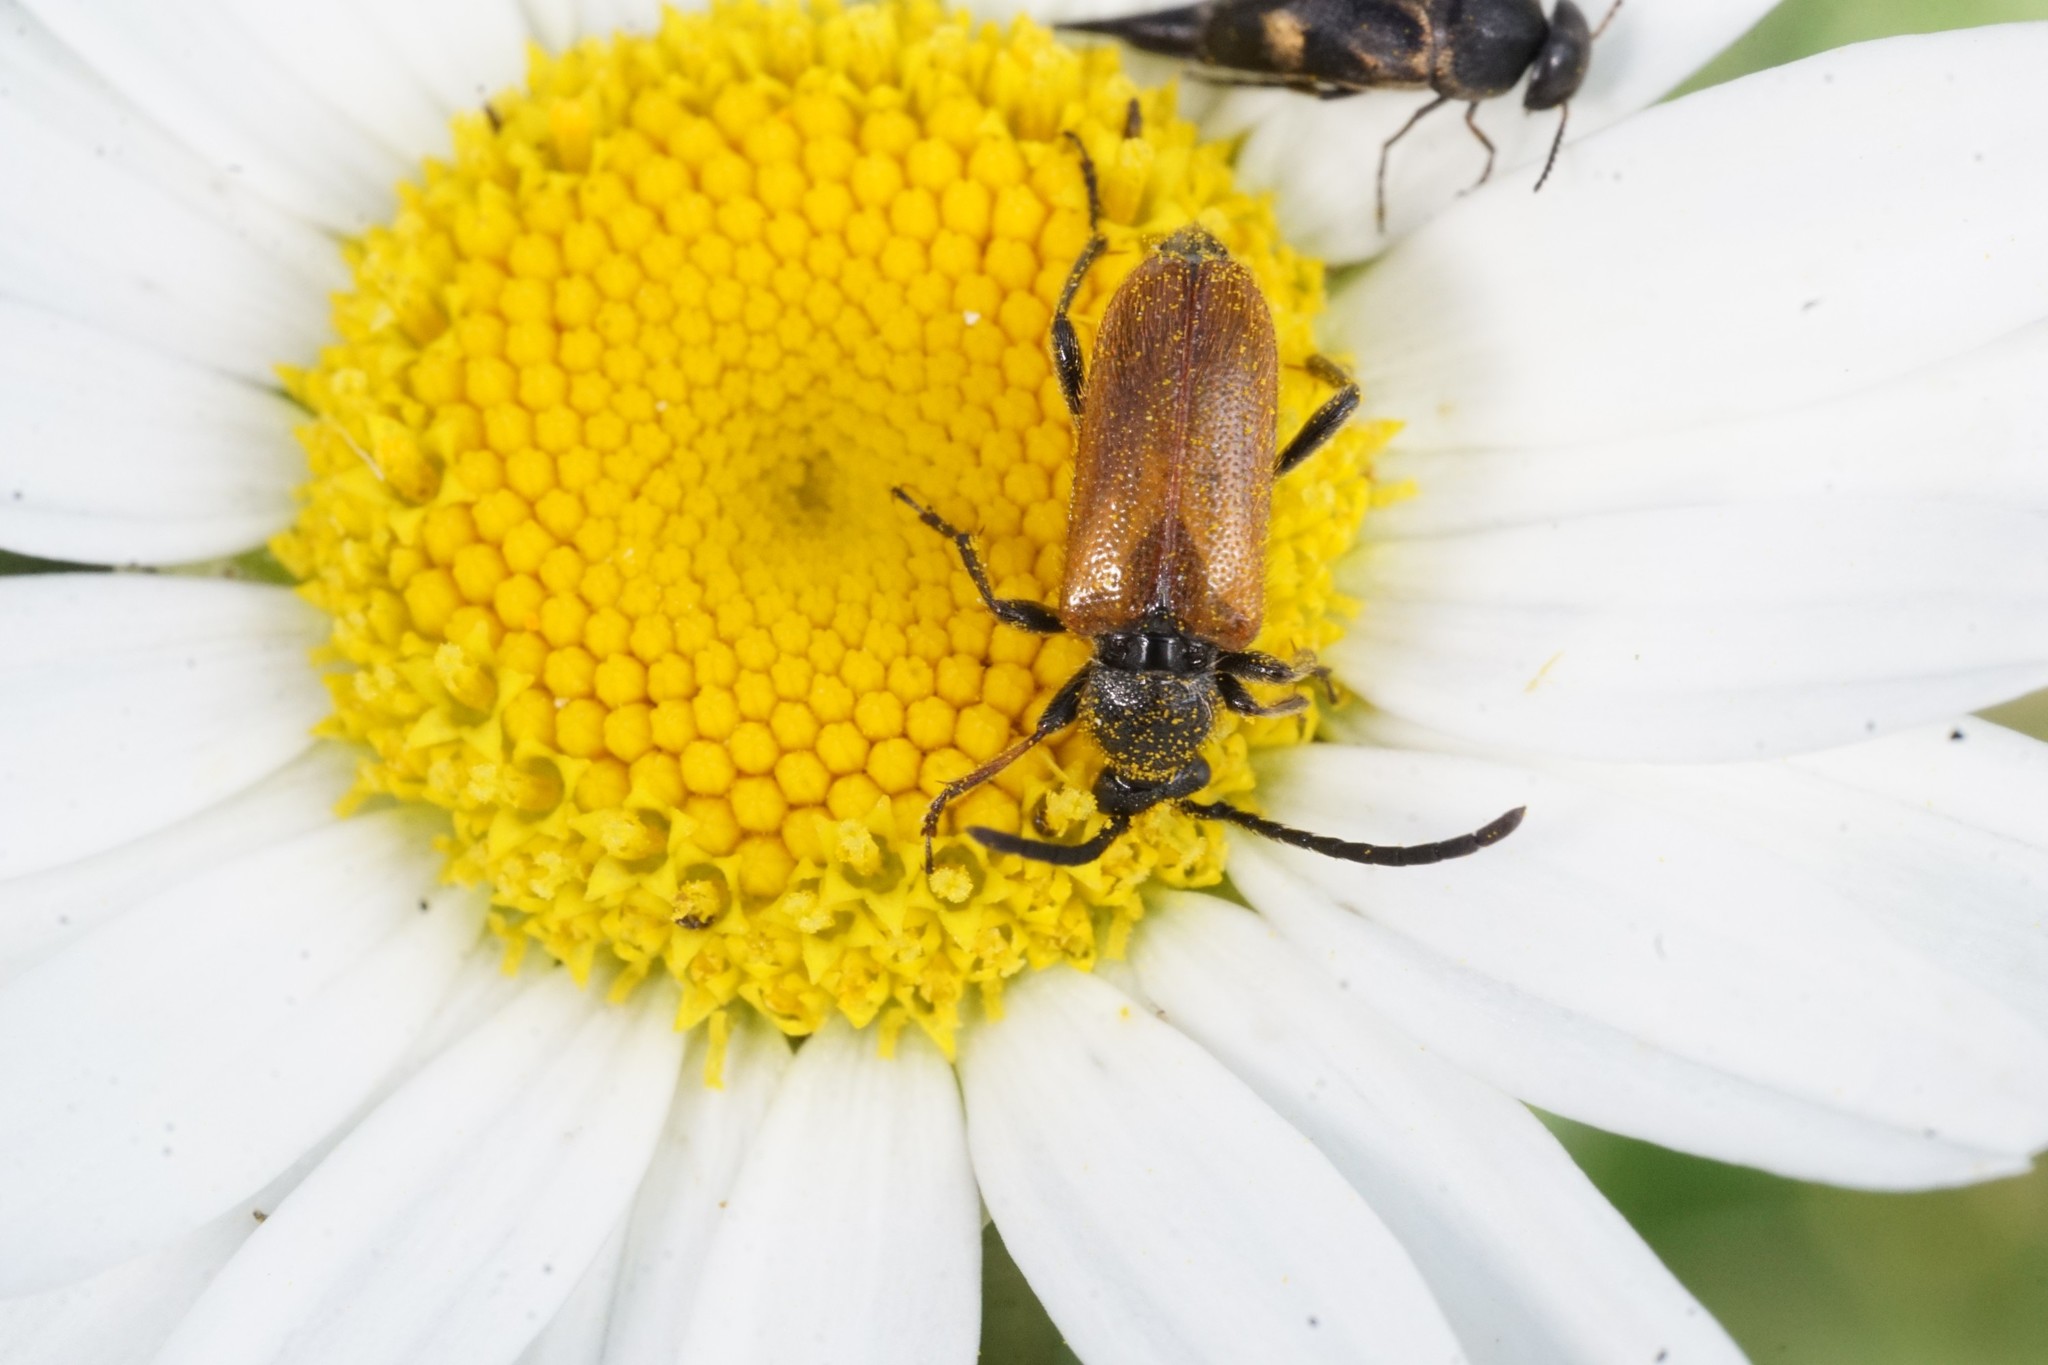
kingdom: Animalia
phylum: Arthropoda
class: Insecta
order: Coleoptera
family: Cerambycidae
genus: Pseudovadonia
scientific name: Pseudovadonia livida
